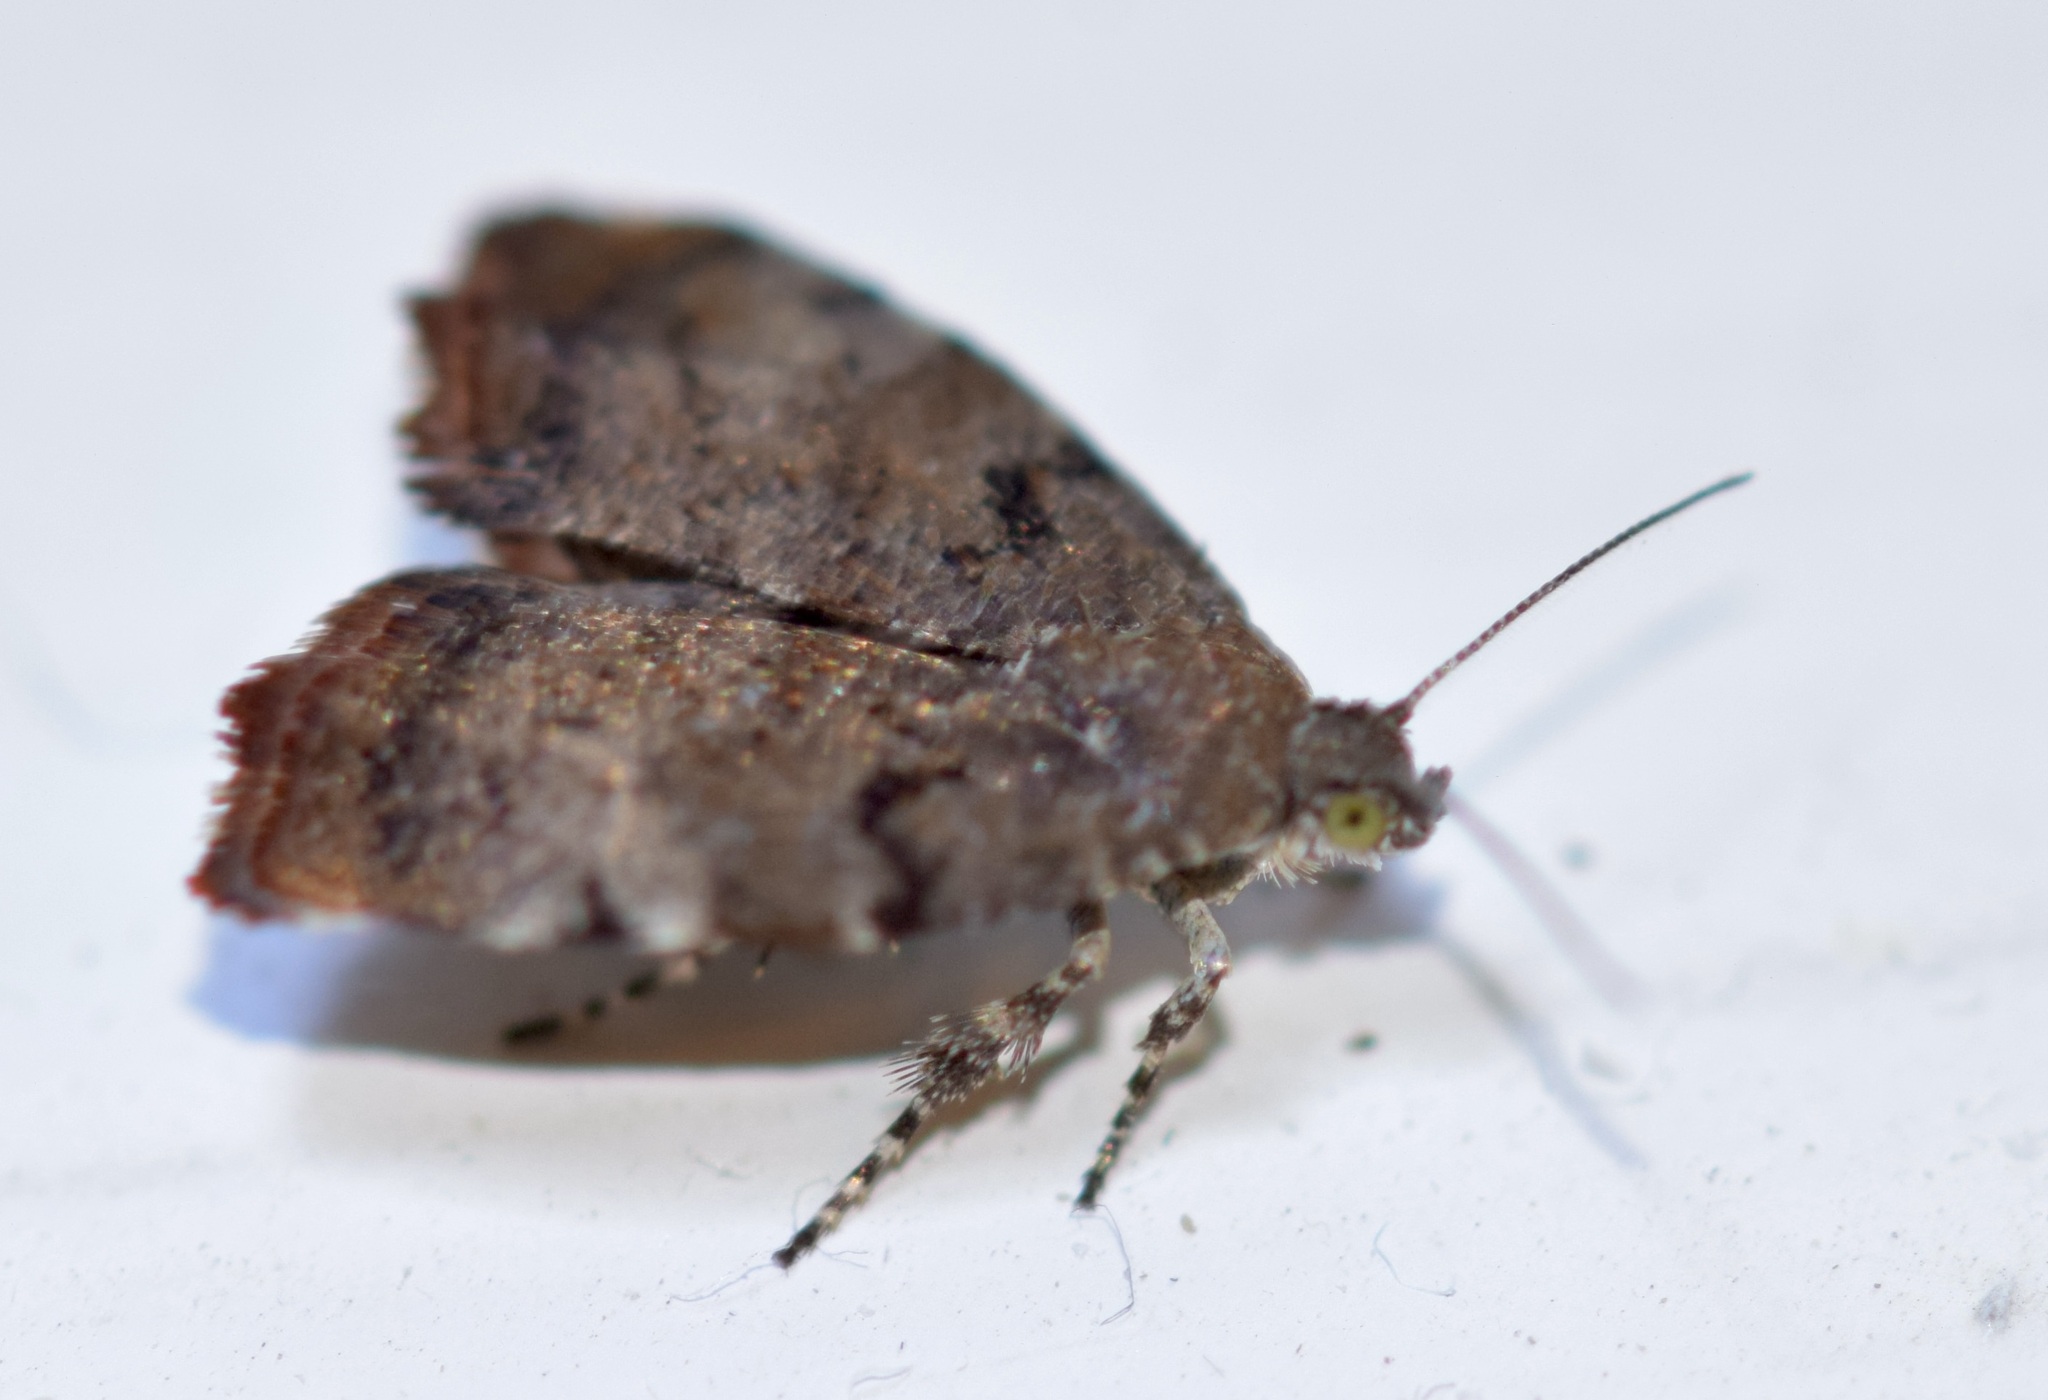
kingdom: Animalia
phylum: Arthropoda
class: Insecta
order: Lepidoptera
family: Choreutidae
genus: Choreutis
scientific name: Choreutis pariana
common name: Apple leaf skeletoniser
